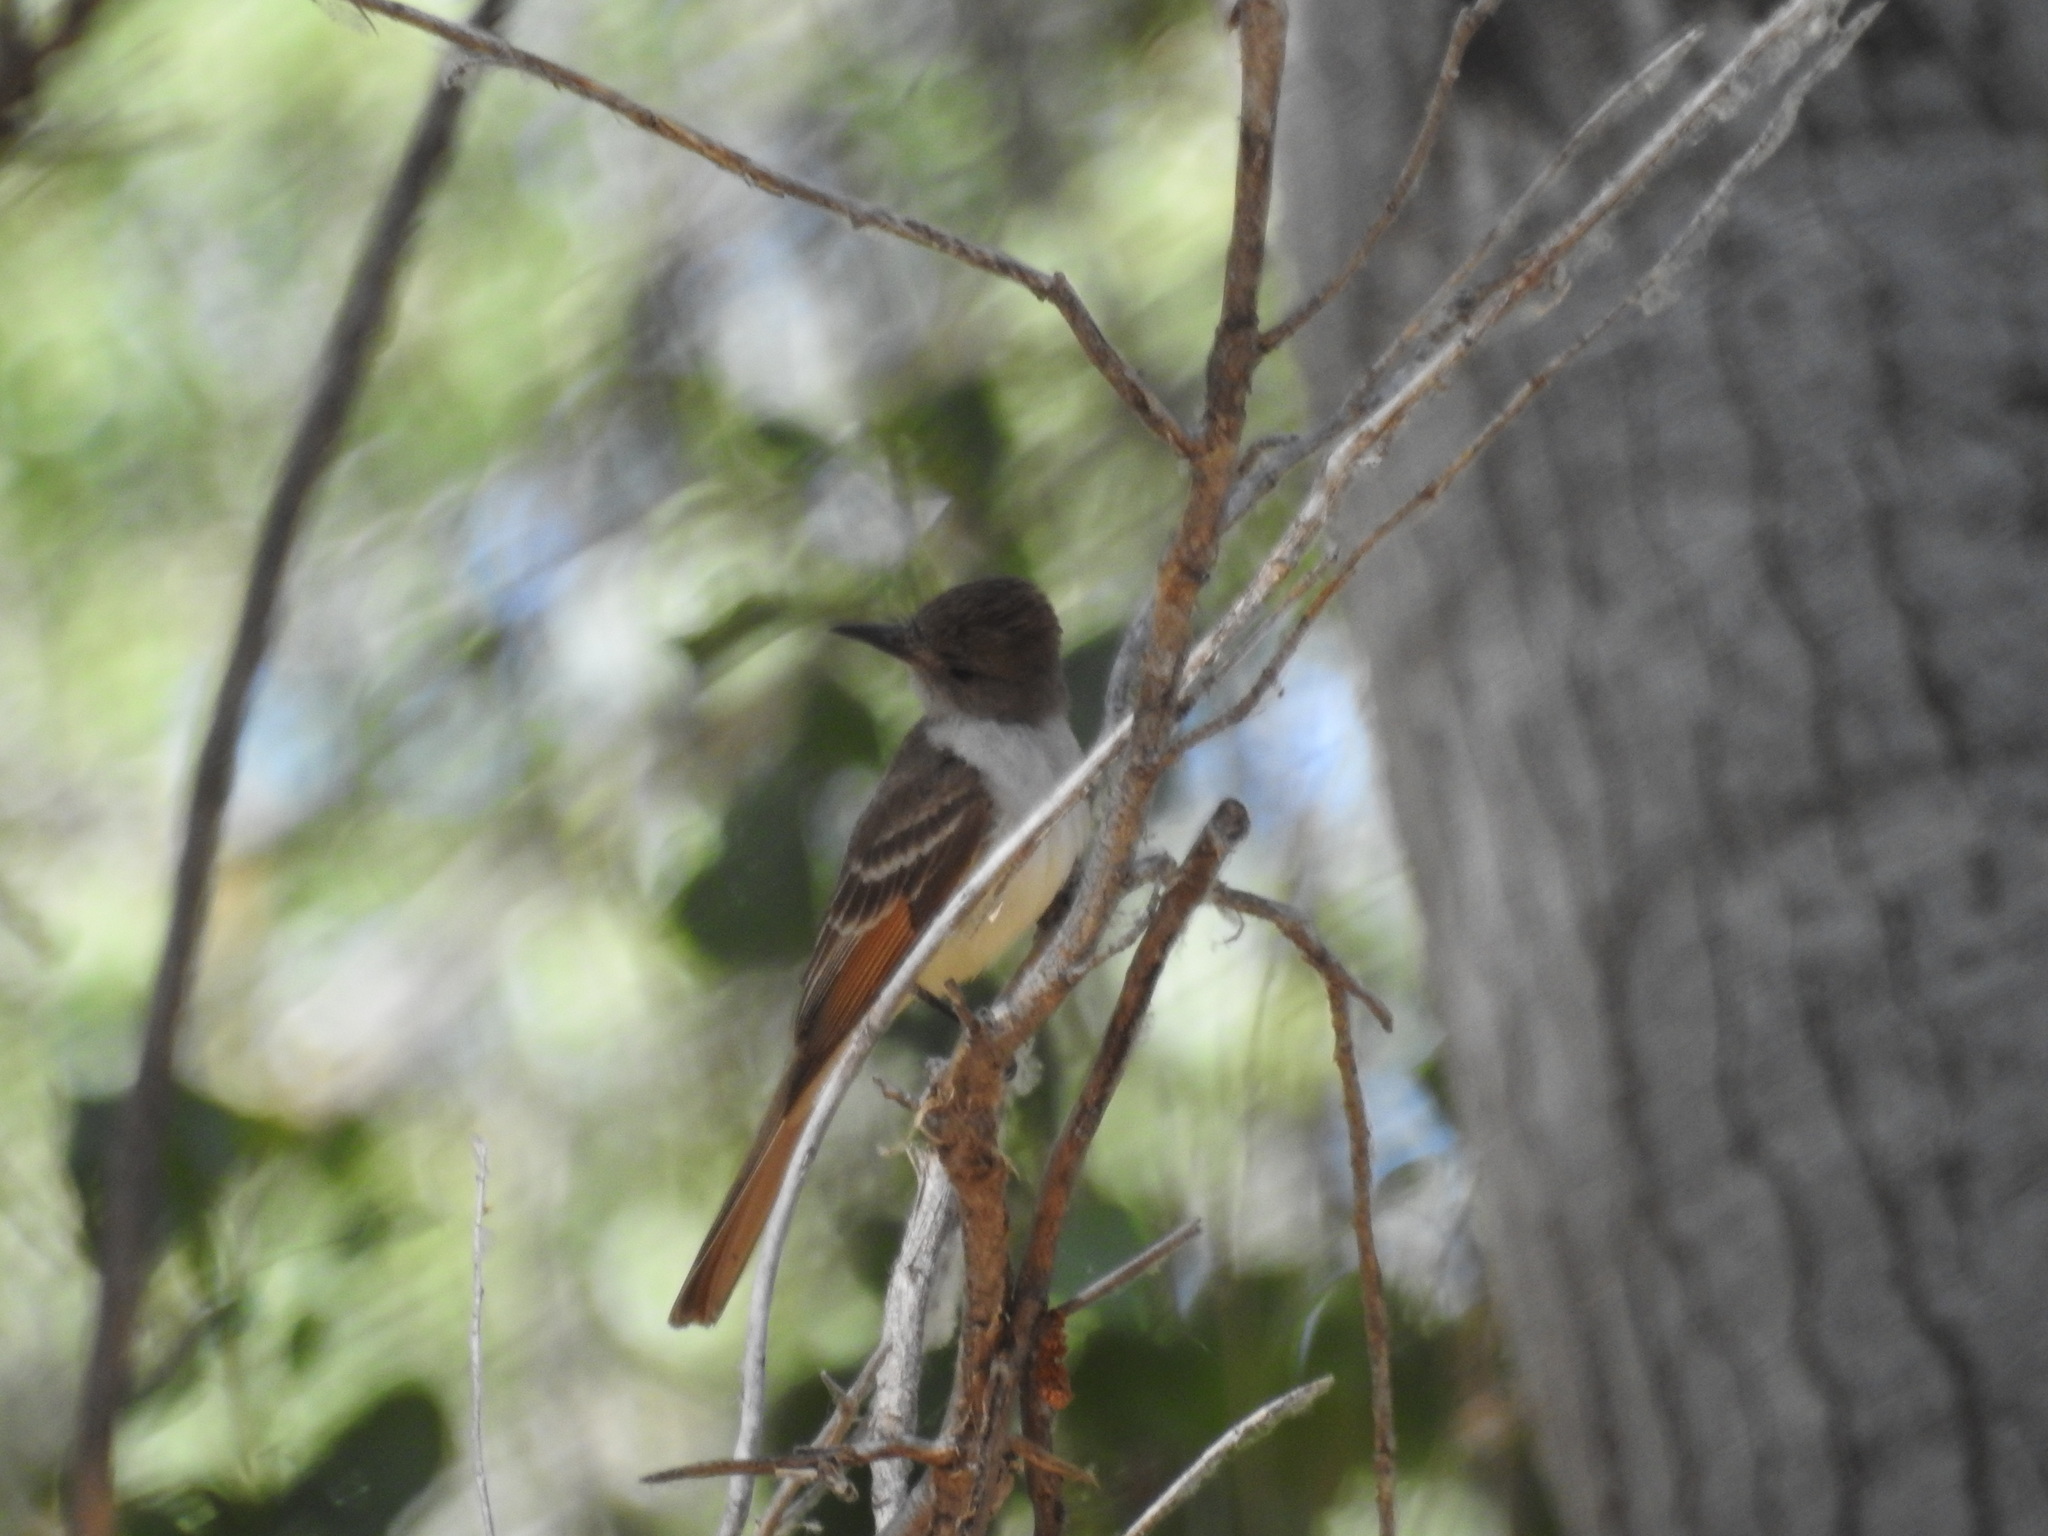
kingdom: Animalia
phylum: Chordata
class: Aves
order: Passeriformes
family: Tyrannidae
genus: Myiarchus
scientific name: Myiarchus tyrannulus
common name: Brown-crested flycatcher
